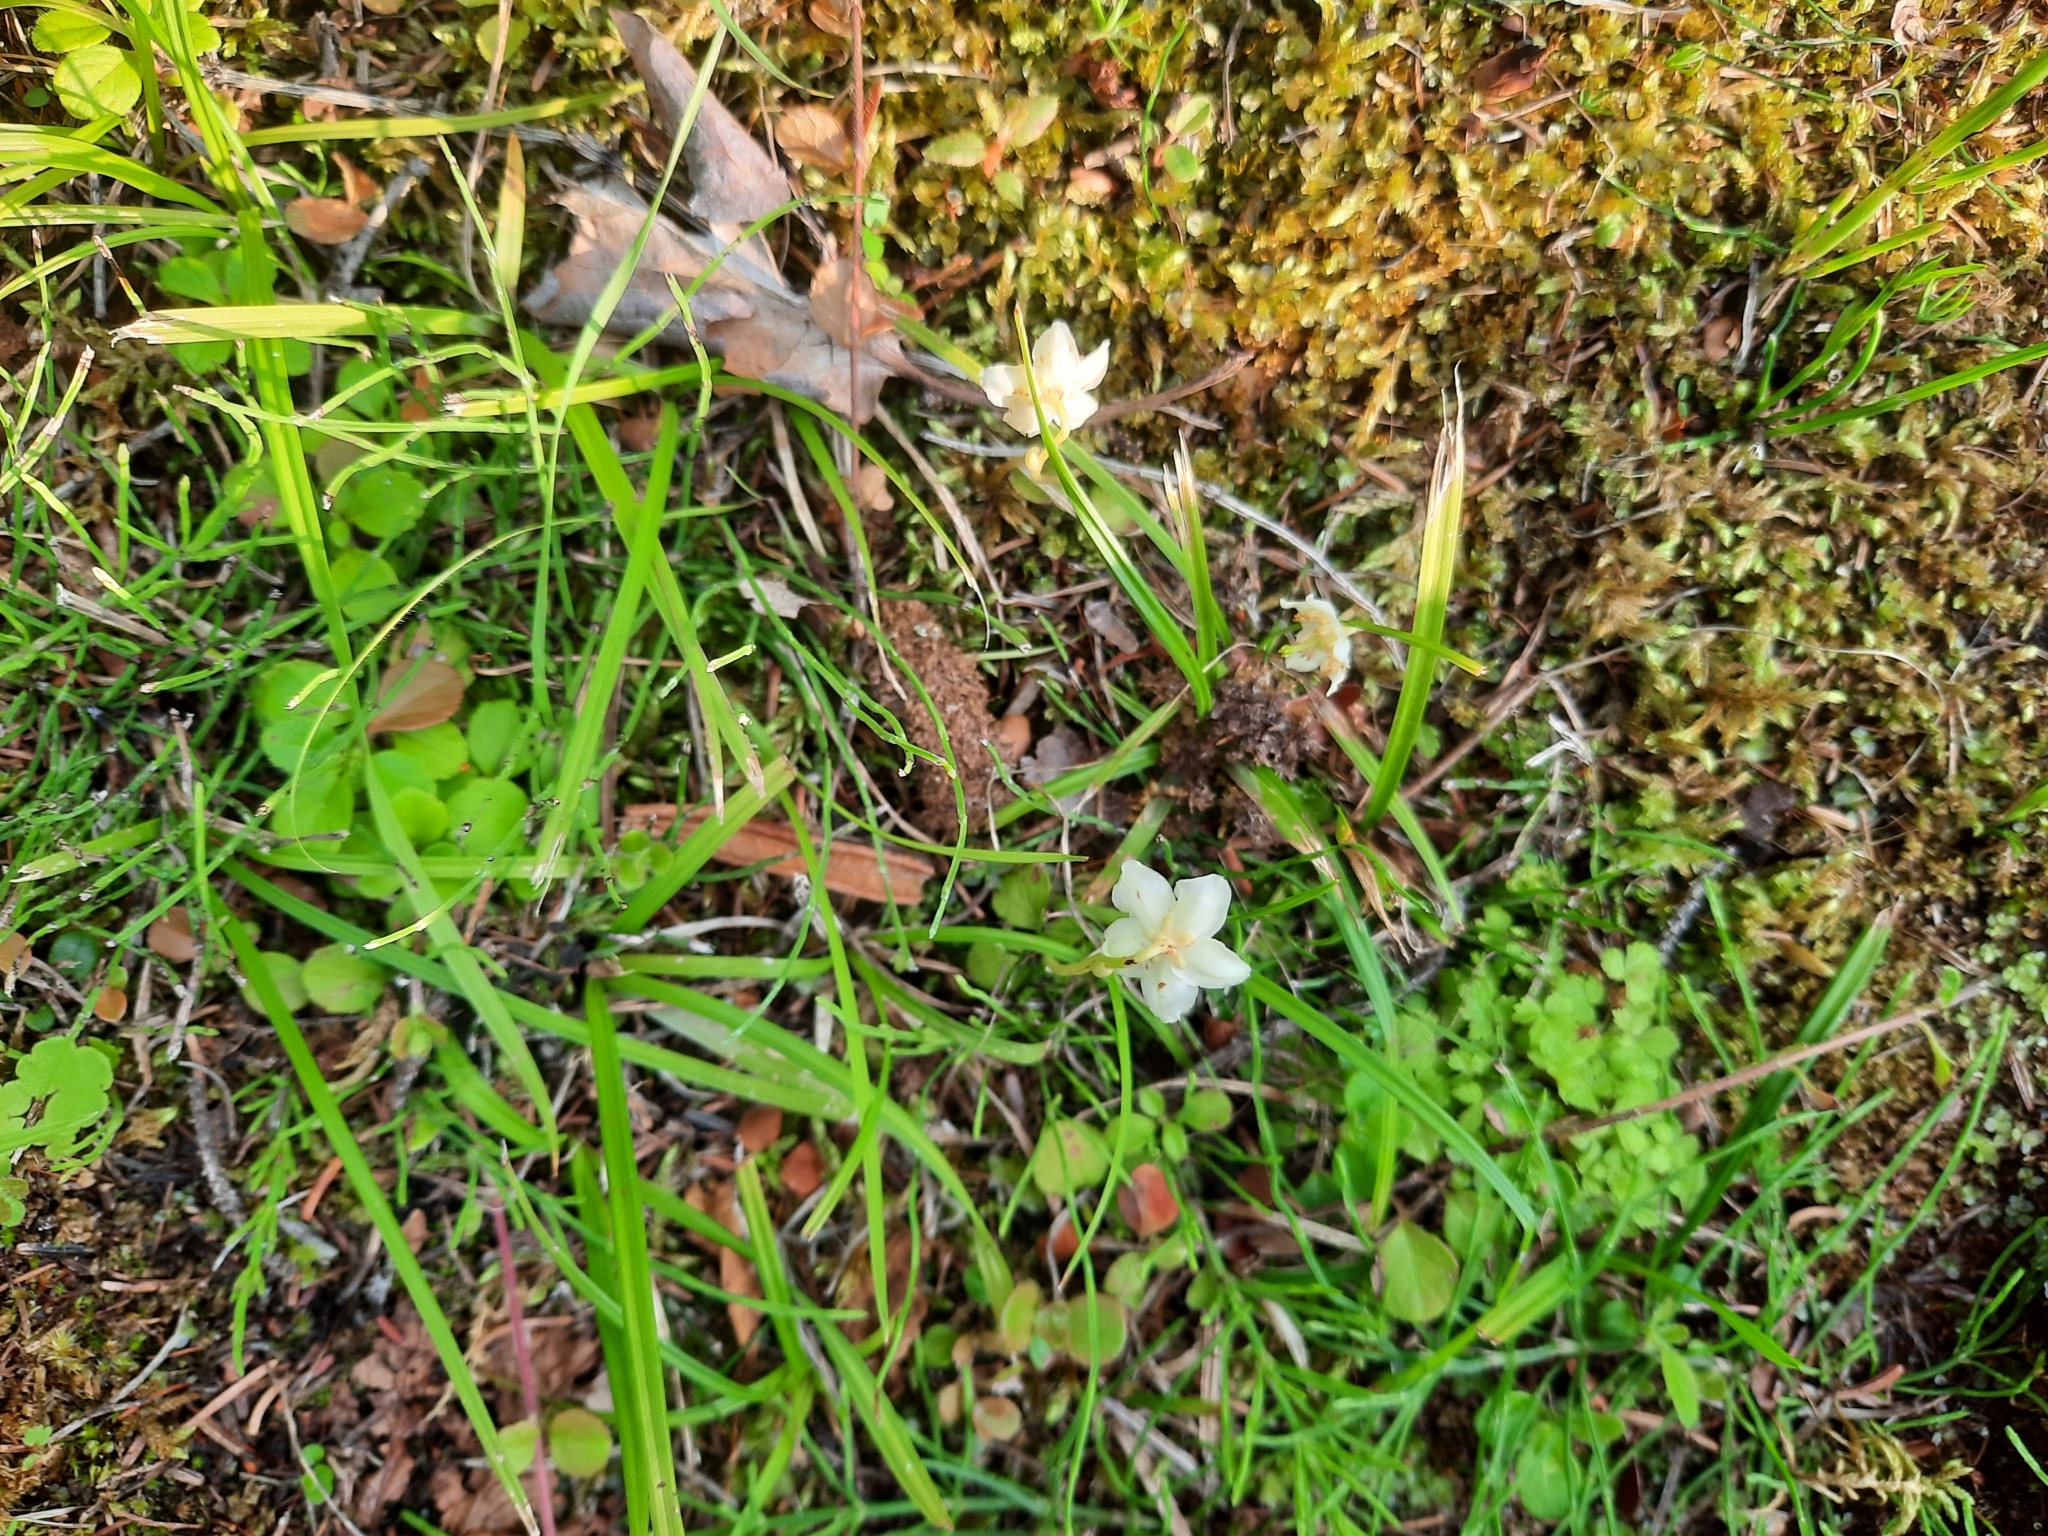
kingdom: Plantae
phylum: Tracheophyta
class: Magnoliopsida
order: Ericales
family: Ericaceae
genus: Moneses
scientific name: Moneses uniflora
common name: One-flowered wintergreen
